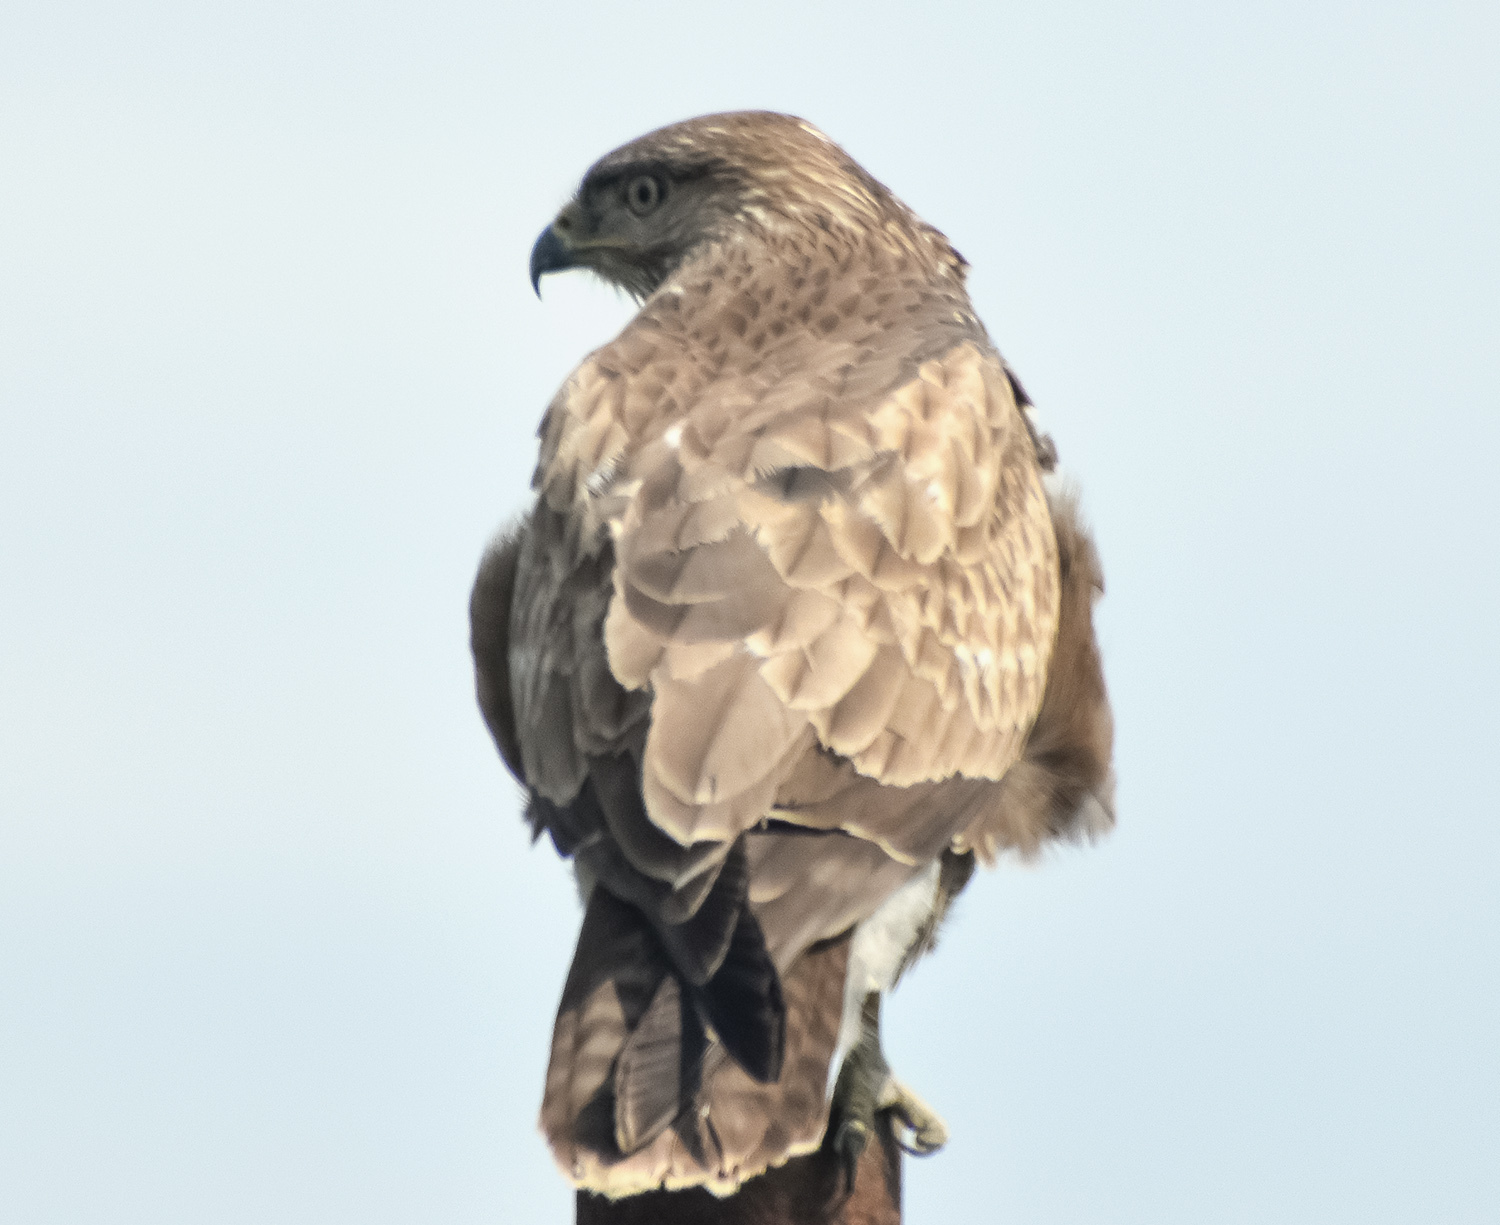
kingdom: Animalia
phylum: Chordata
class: Aves
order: Accipitriformes
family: Accipitridae
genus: Buteo
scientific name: Buteo buteo
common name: Common buzzard
